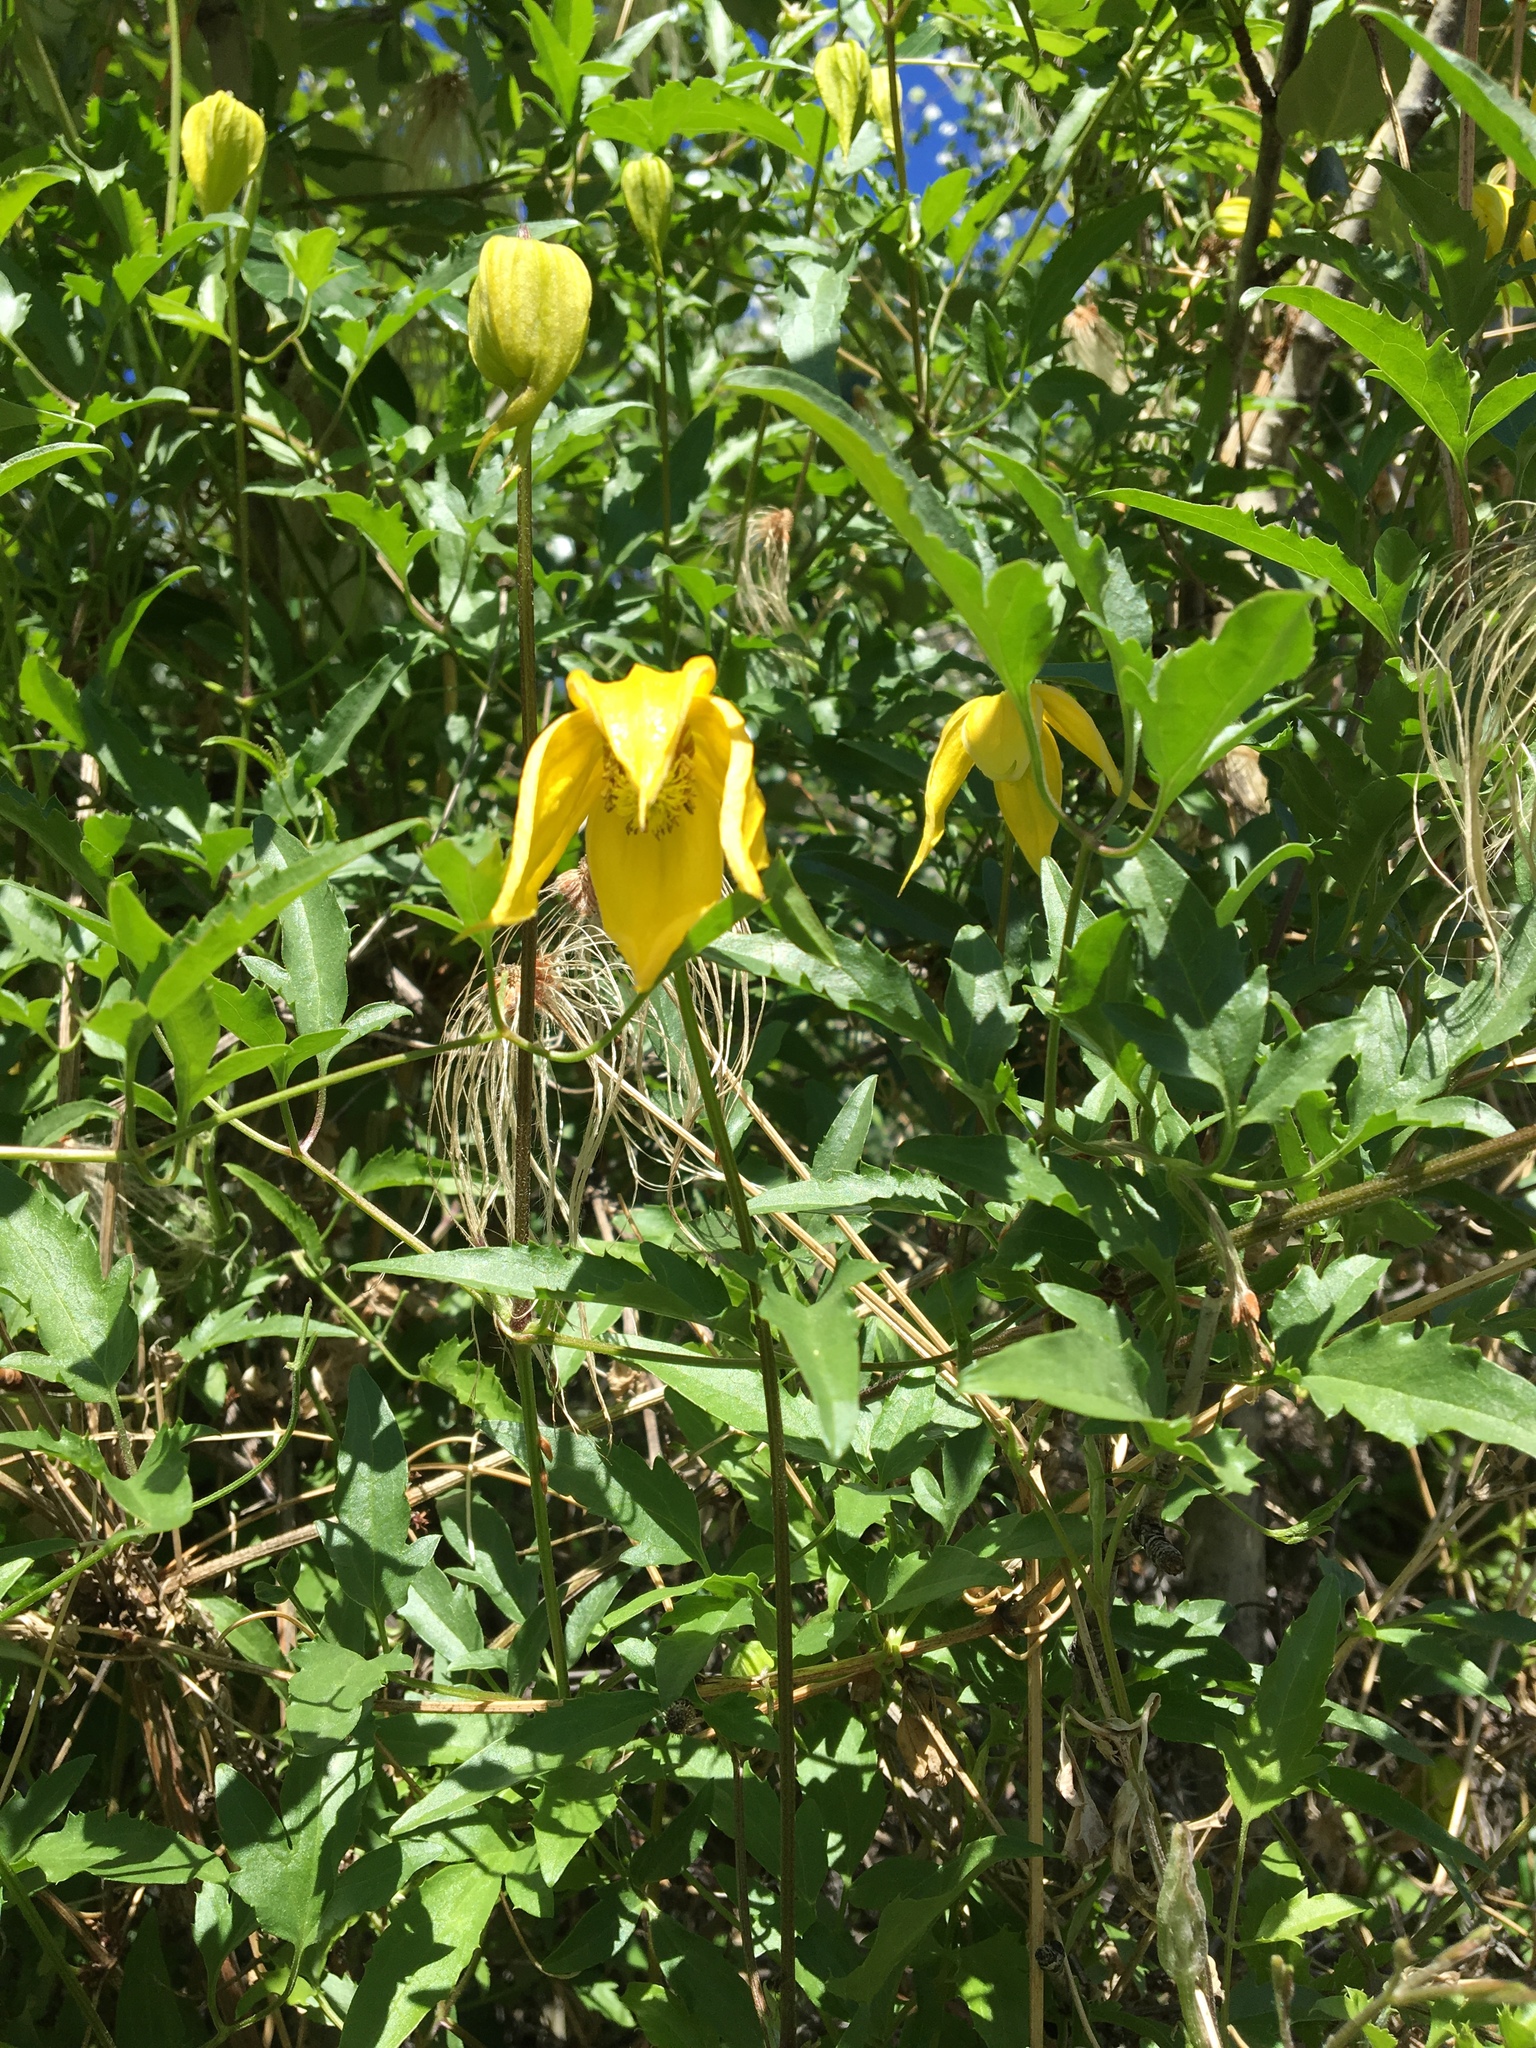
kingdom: Plantae
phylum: Tracheophyta
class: Magnoliopsida
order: Ranunculales
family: Ranunculaceae
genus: Clematis
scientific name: Clematis tangutica
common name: Orange-peel clematis
